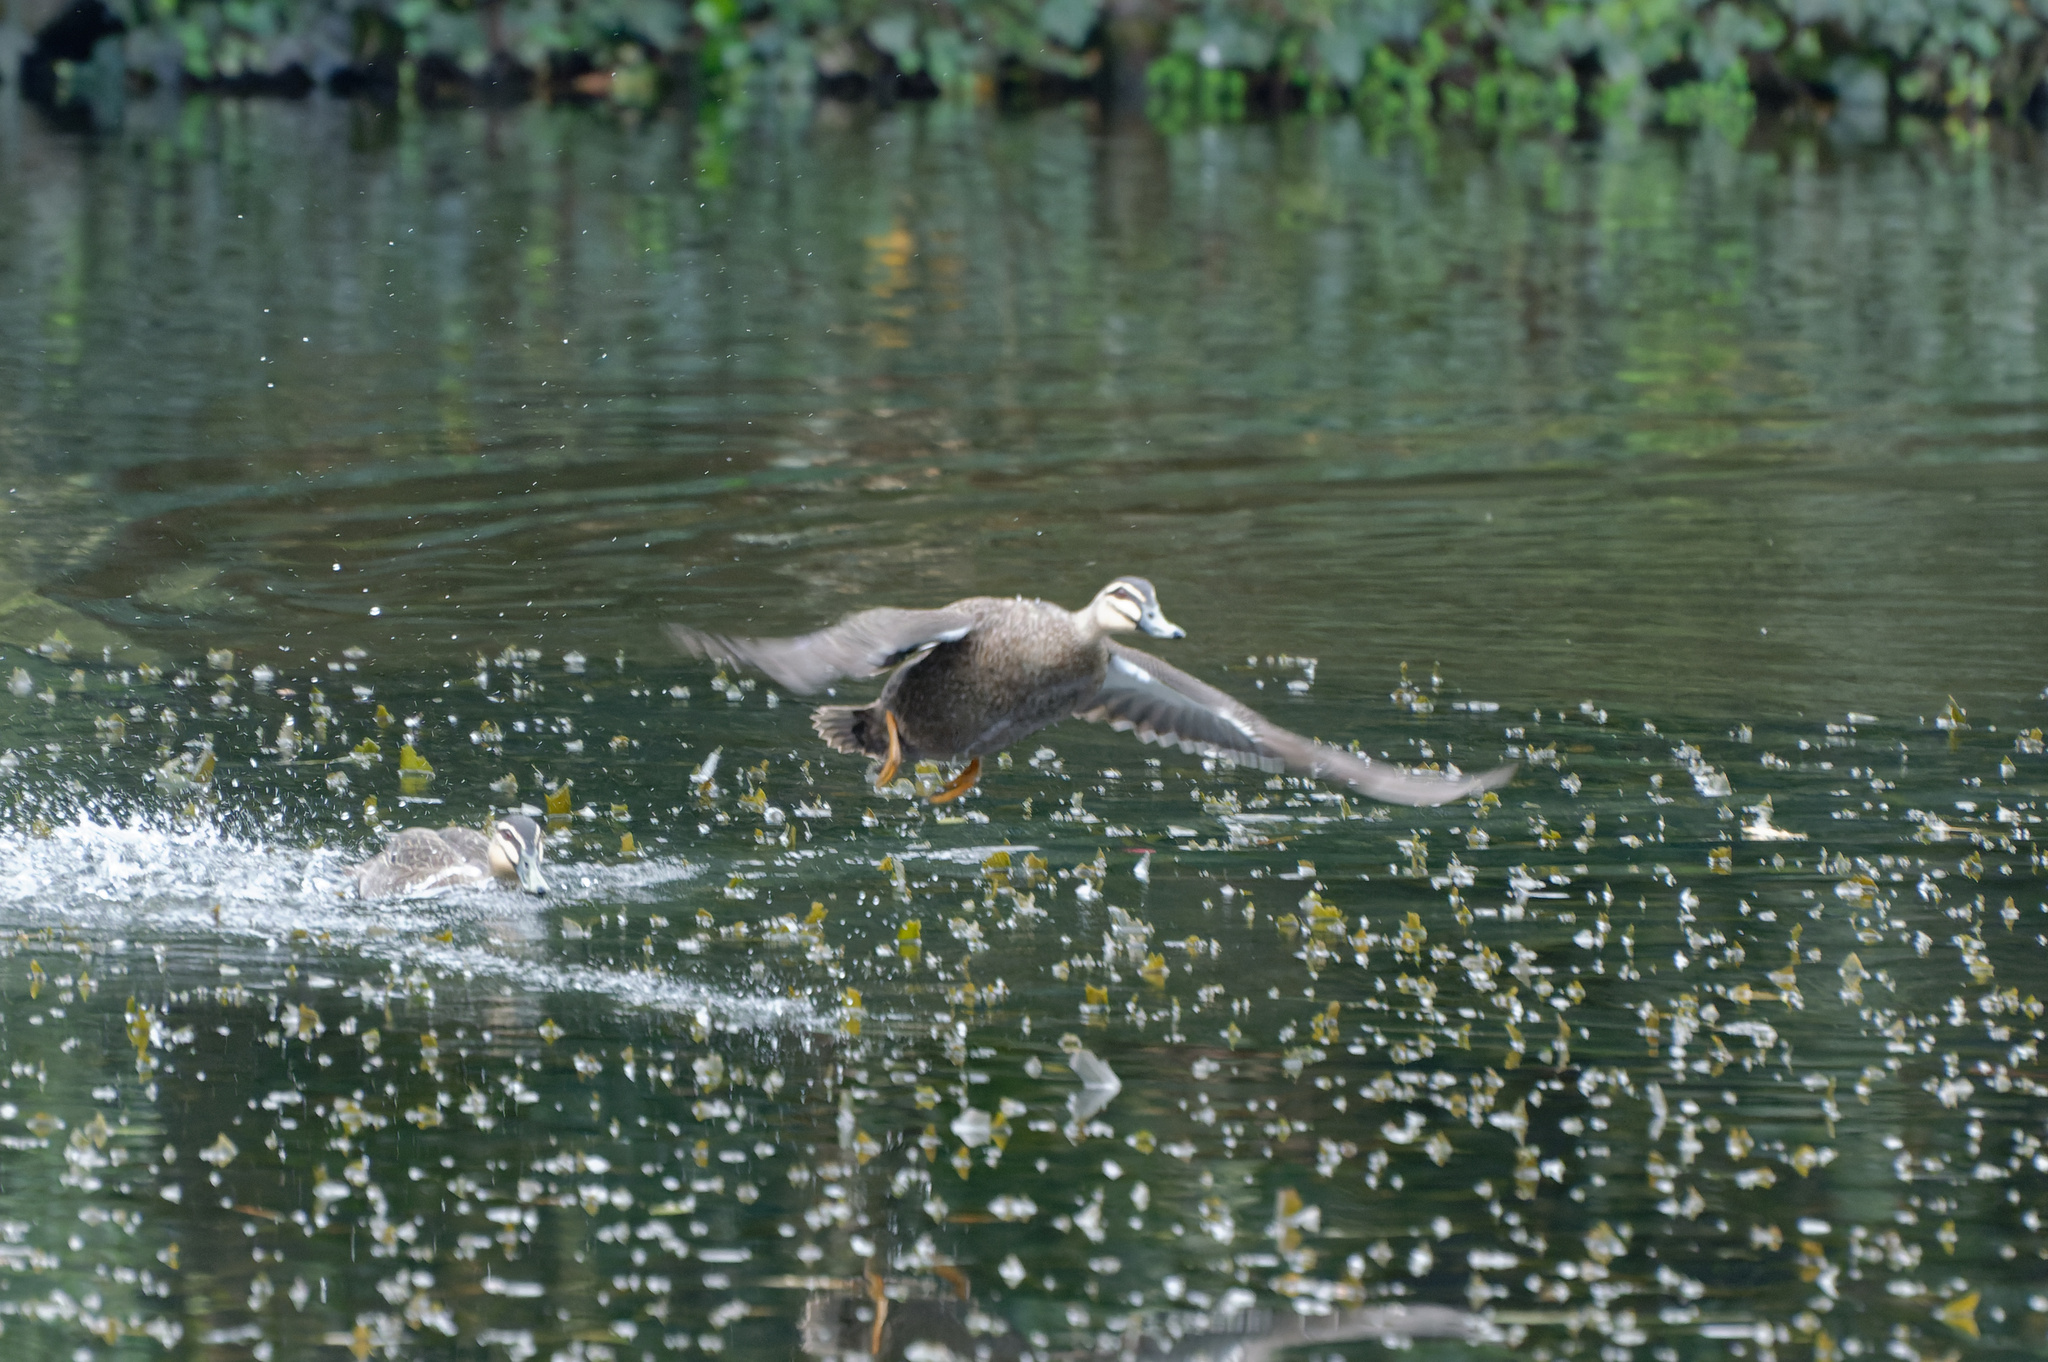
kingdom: Animalia
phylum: Chordata
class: Aves
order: Anseriformes
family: Anatidae
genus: Anas
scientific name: Anas superciliosa
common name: Pacific black duck
